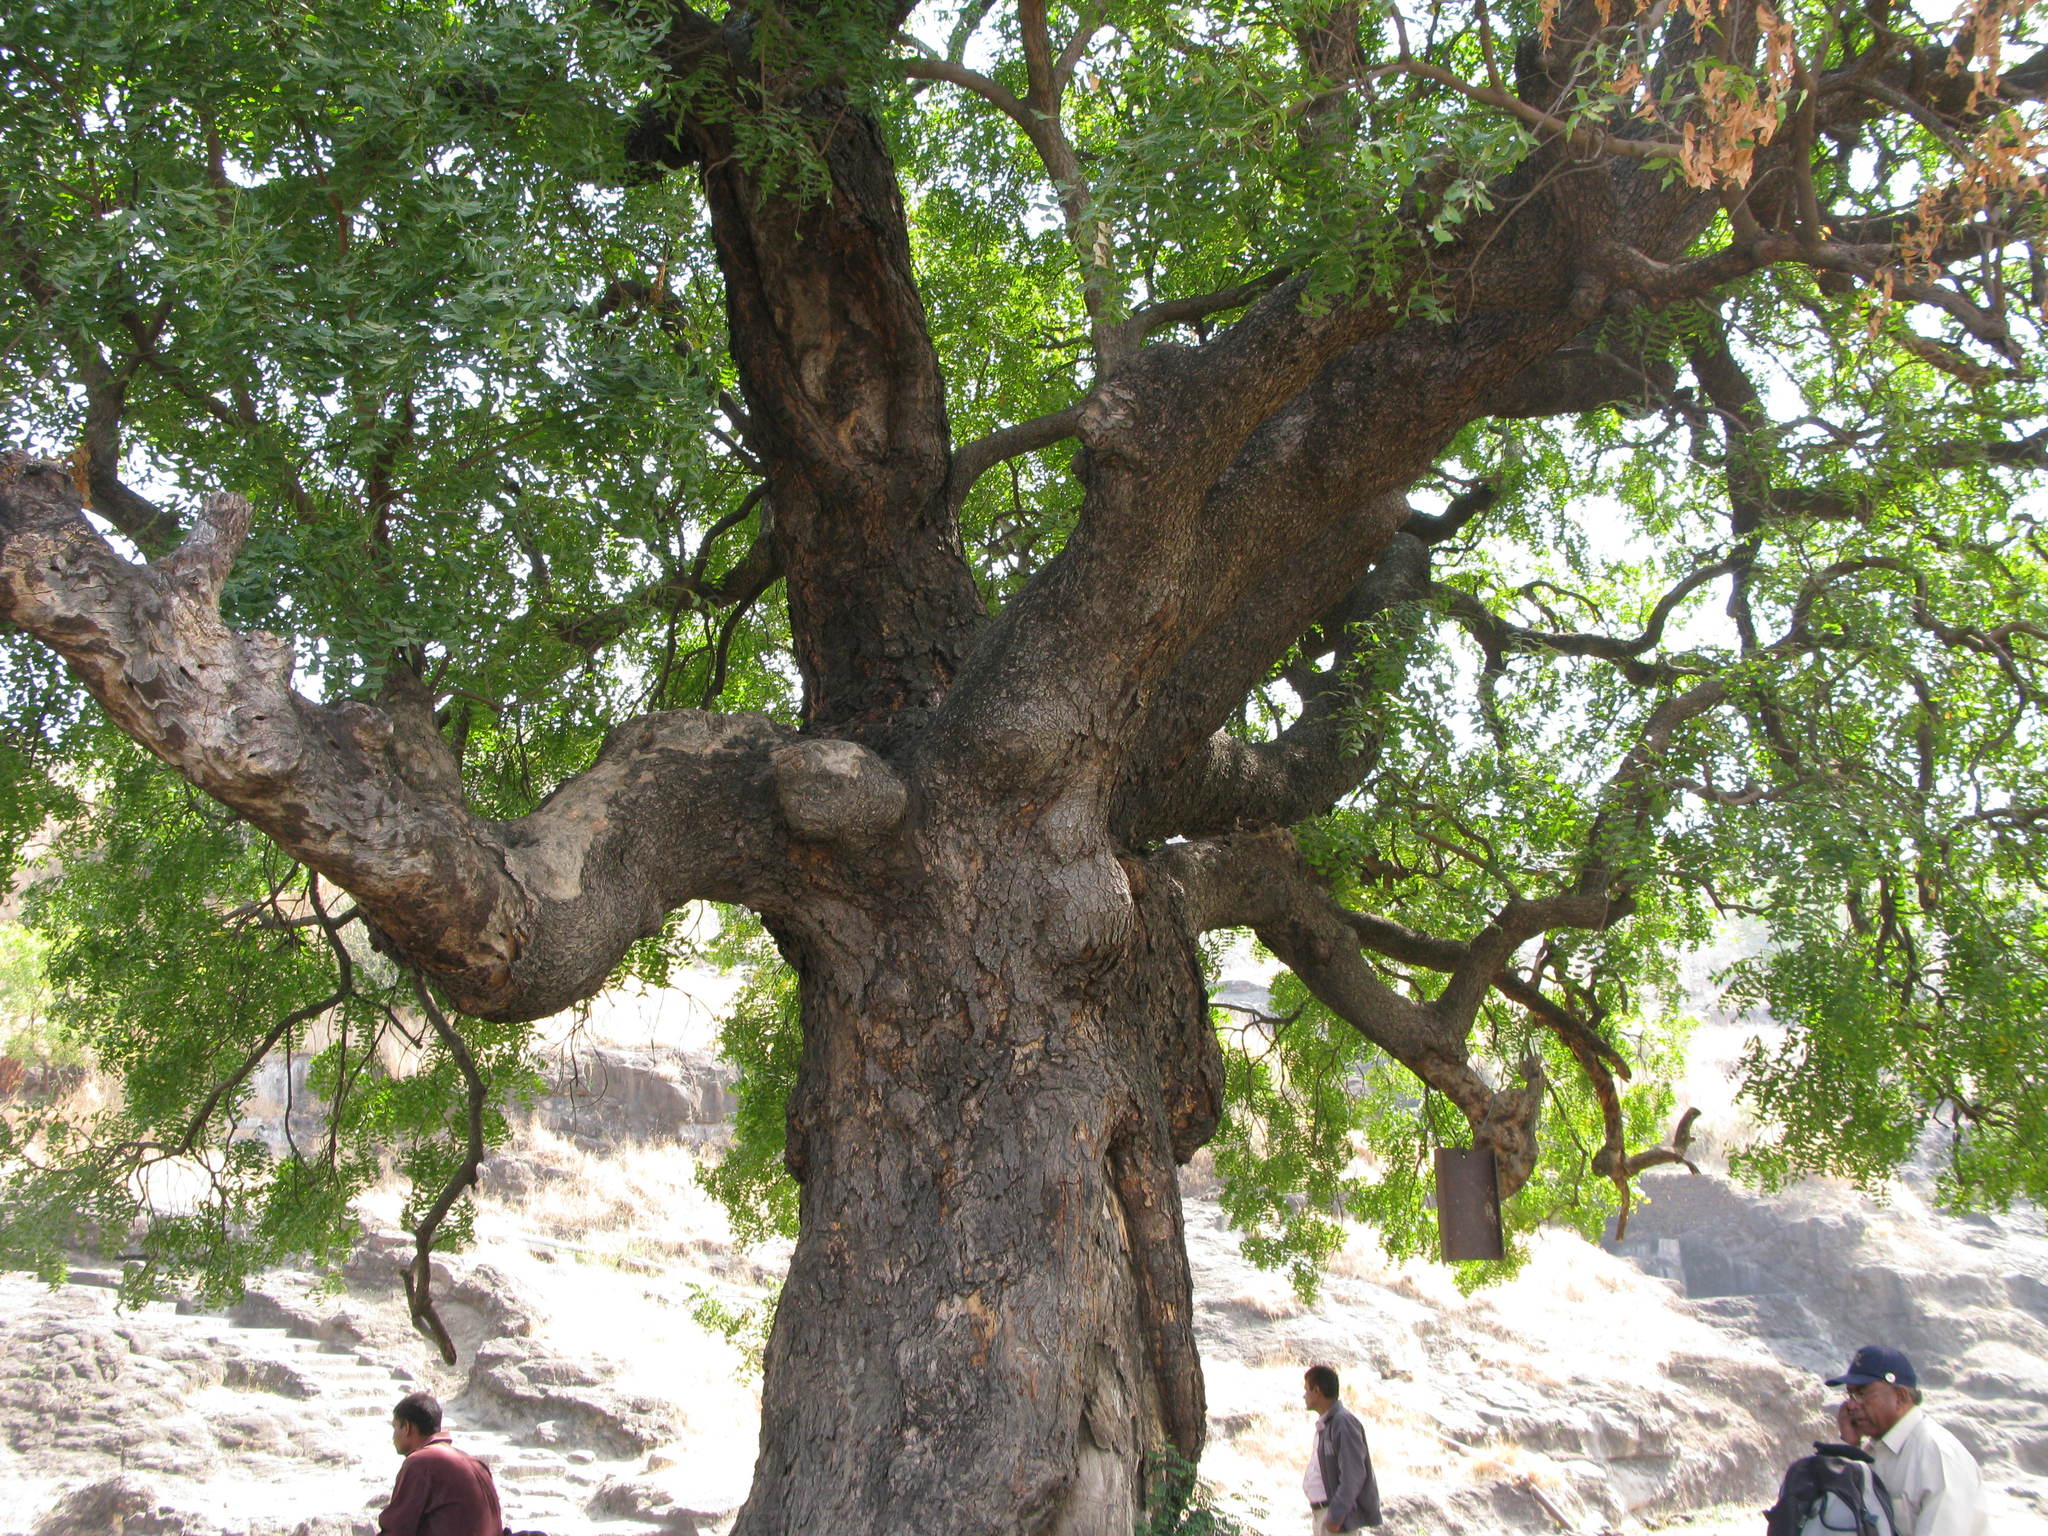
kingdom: Plantae
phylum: Tracheophyta
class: Magnoliopsida
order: Sapindales
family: Meliaceae
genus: Azadirachta
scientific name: Azadirachta indica
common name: Neem
